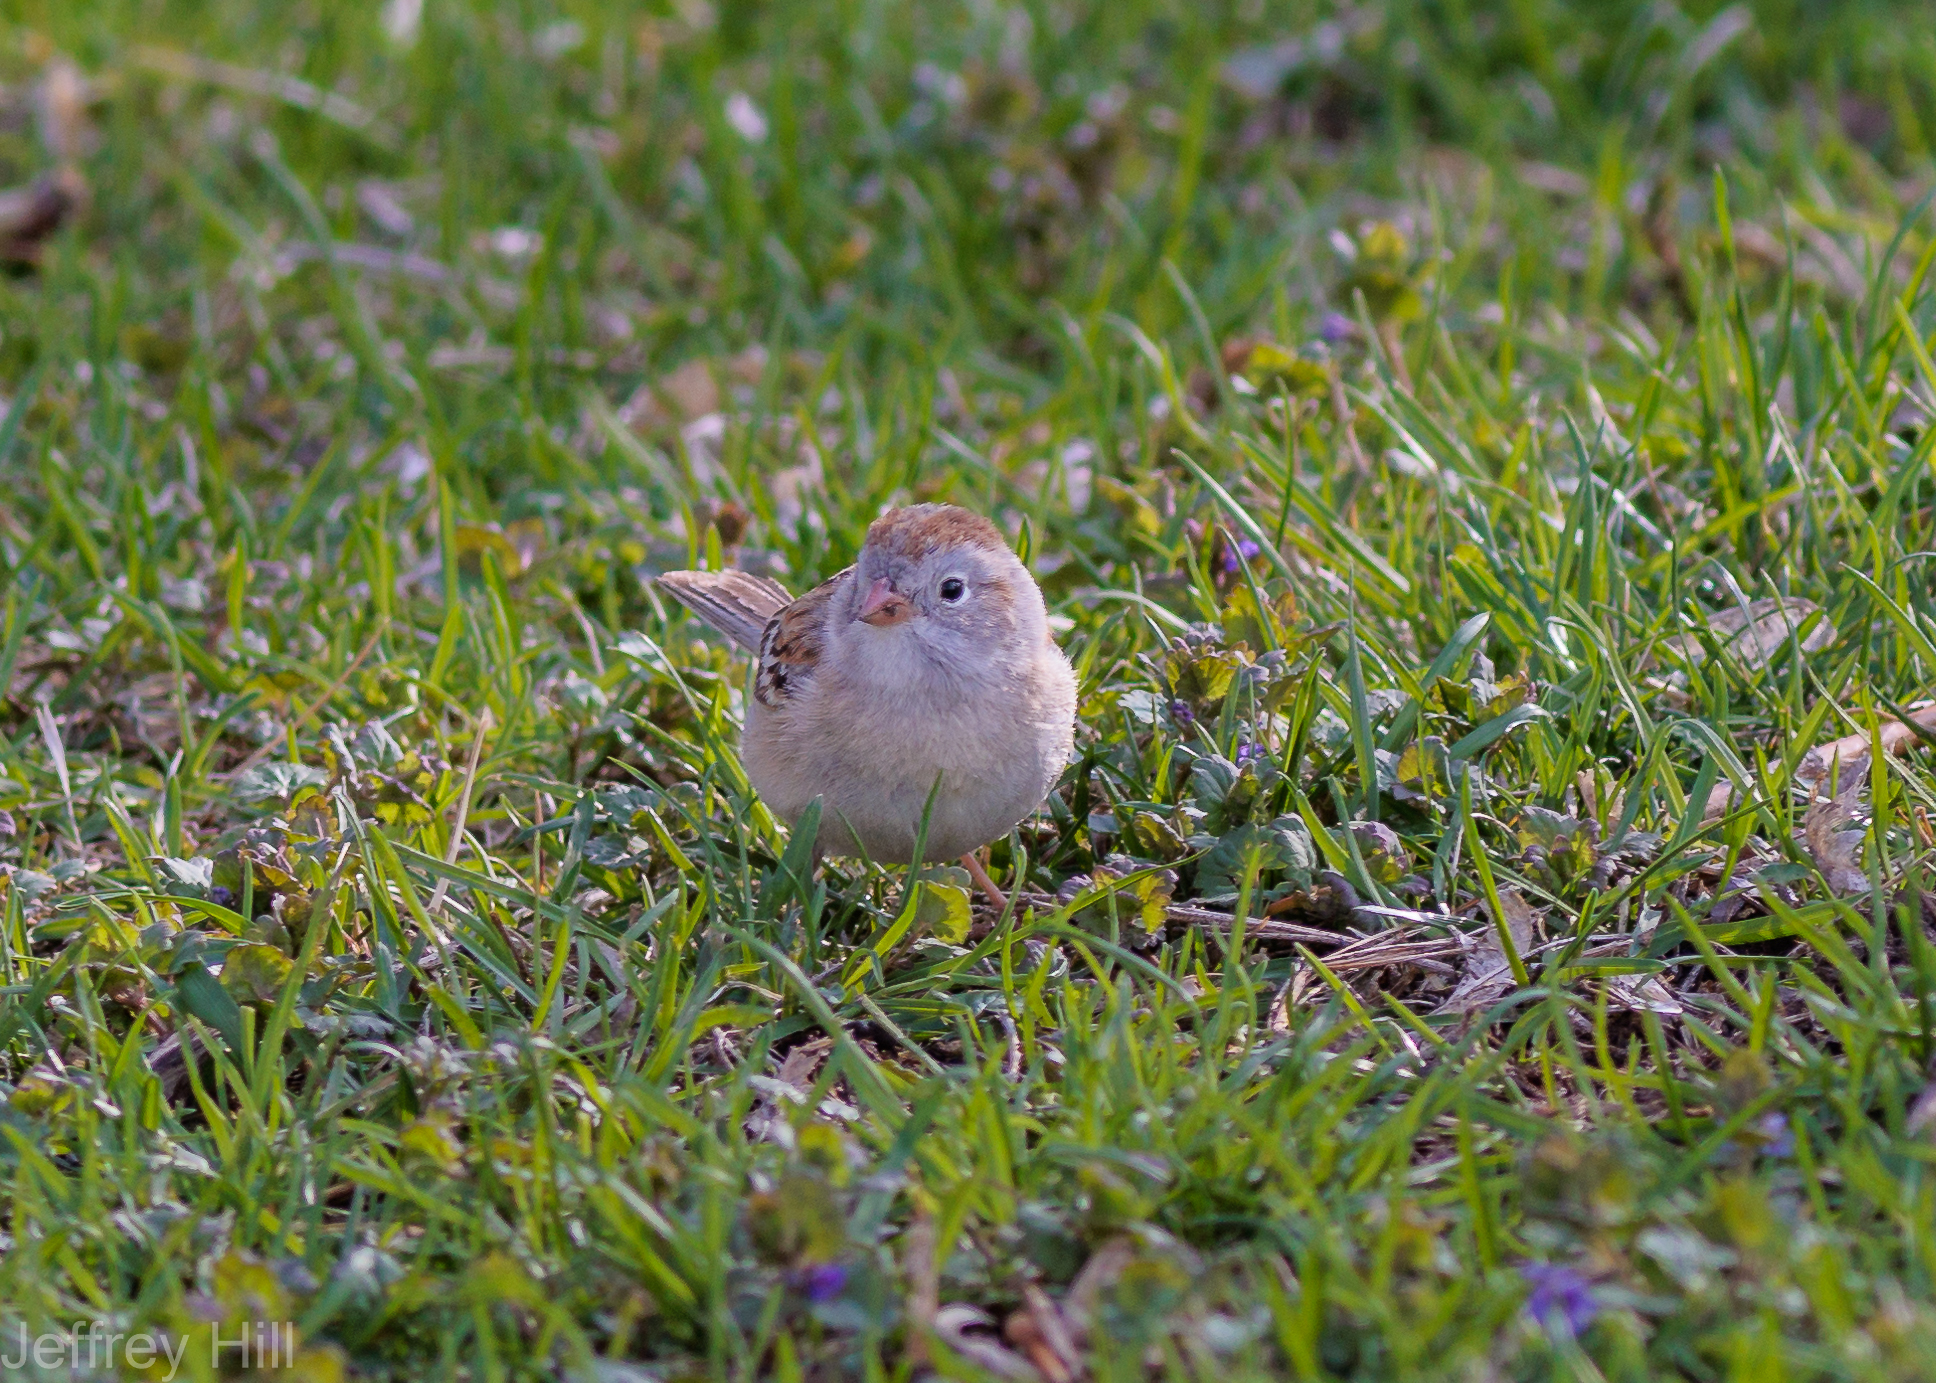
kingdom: Animalia
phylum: Chordata
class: Aves
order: Passeriformes
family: Passerellidae
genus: Spizella
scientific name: Spizella pusilla
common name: Field sparrow
